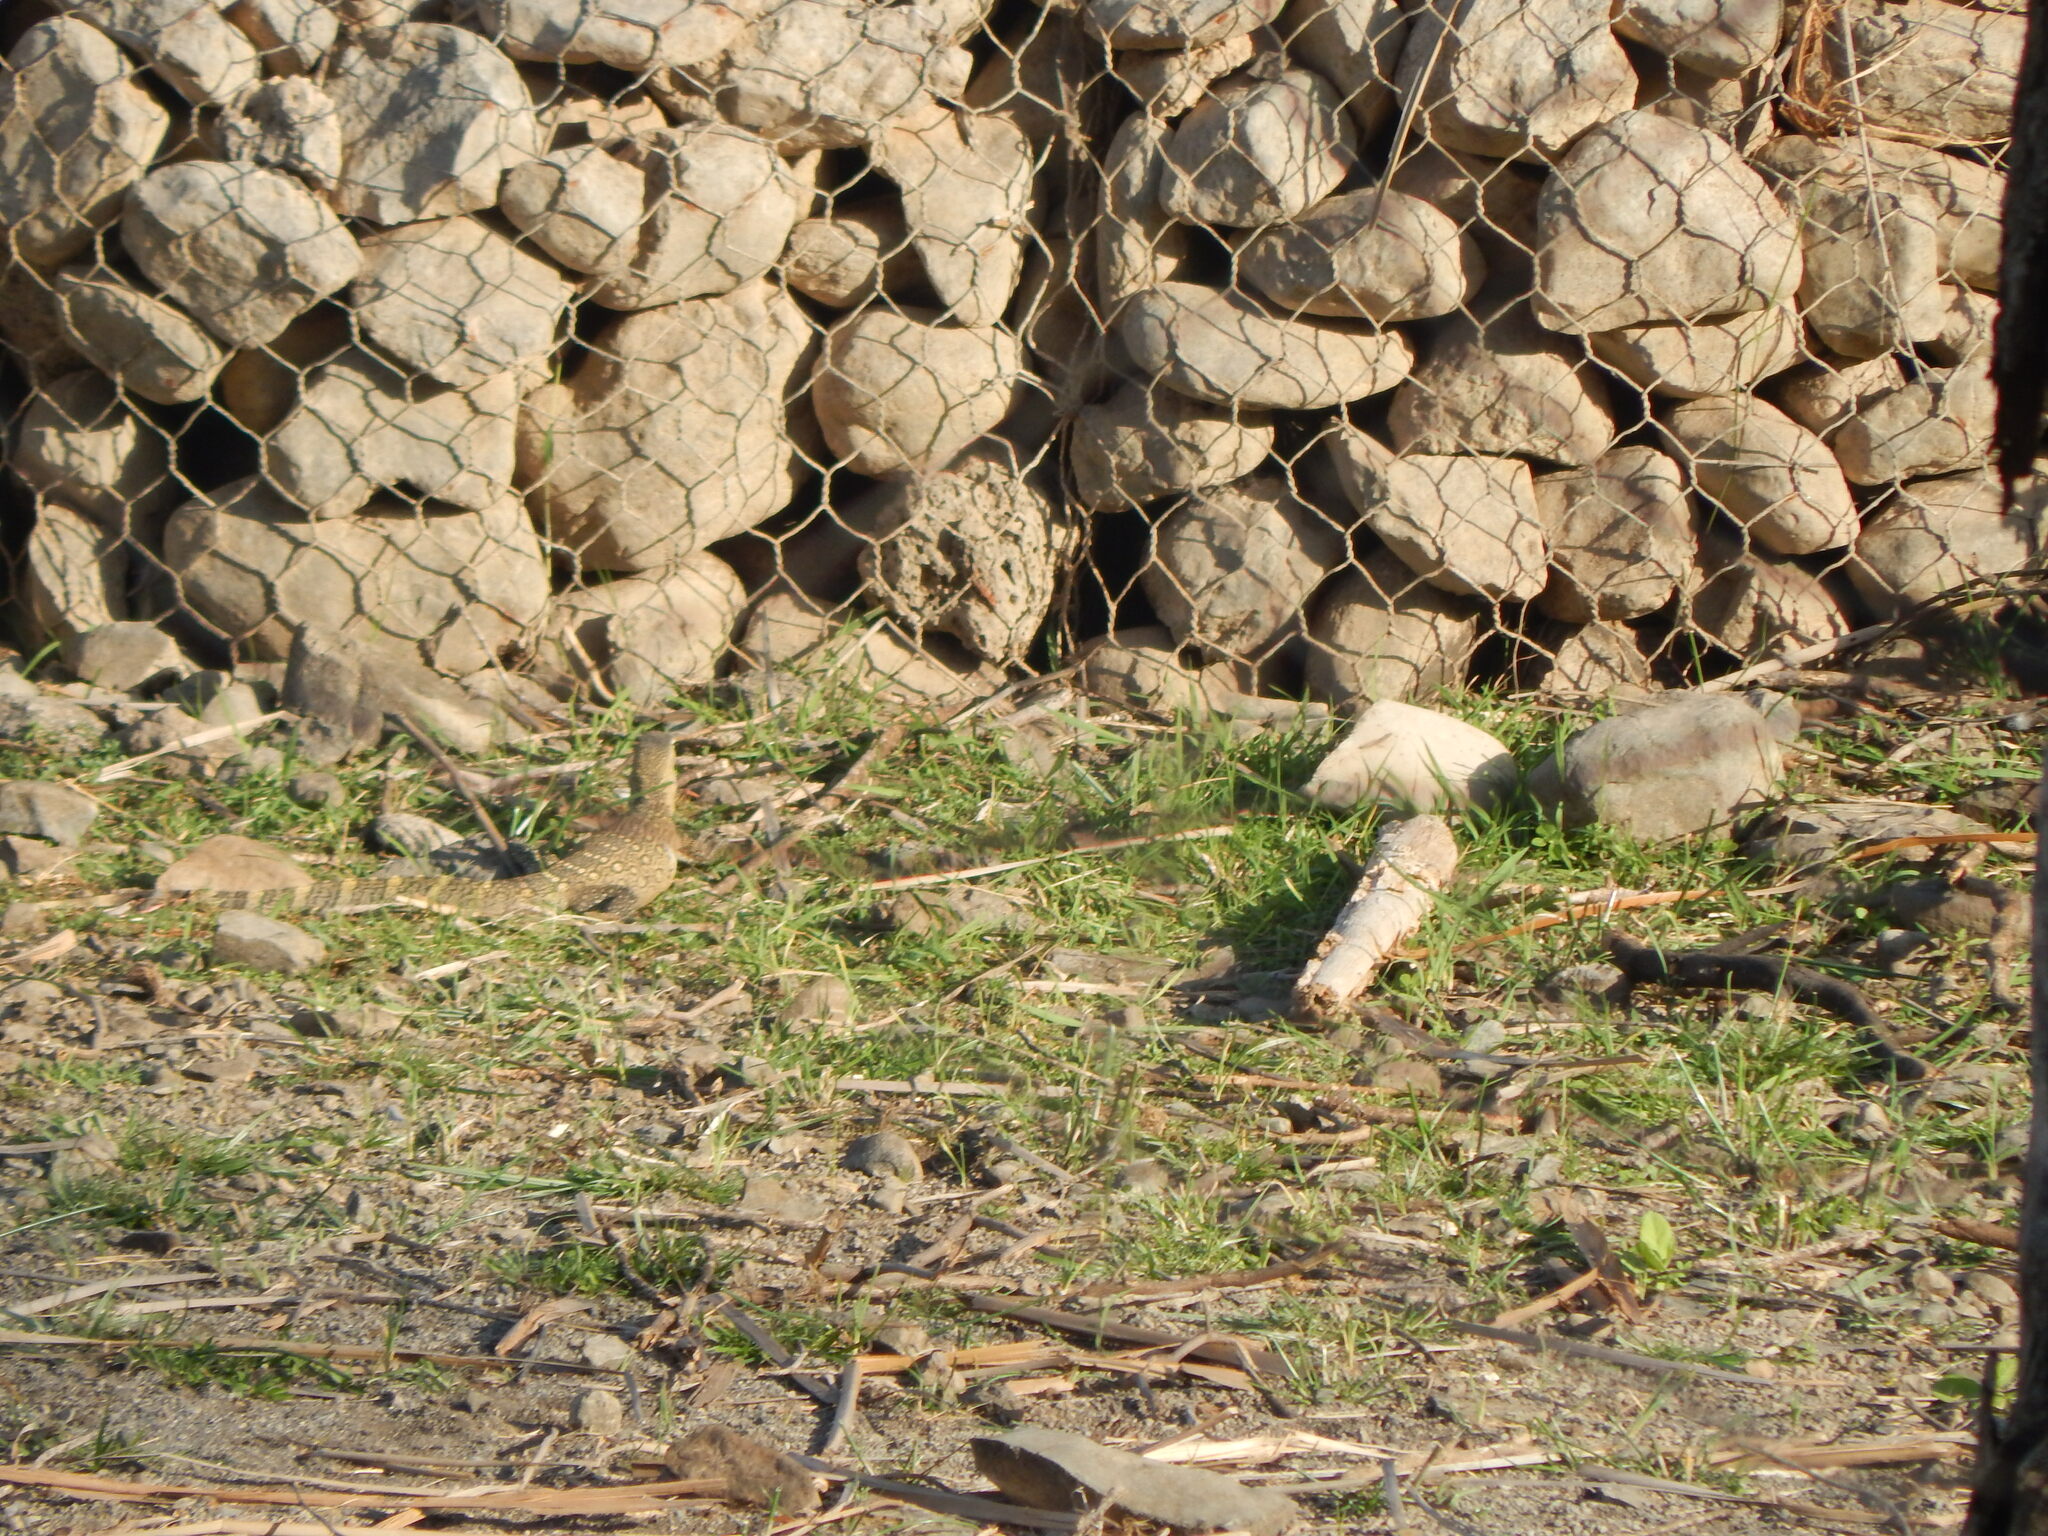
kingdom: Animalia
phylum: Chordata
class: Squamata
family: Varanidae
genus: Varanus
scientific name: Varanus niloticus
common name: Nile monitor
